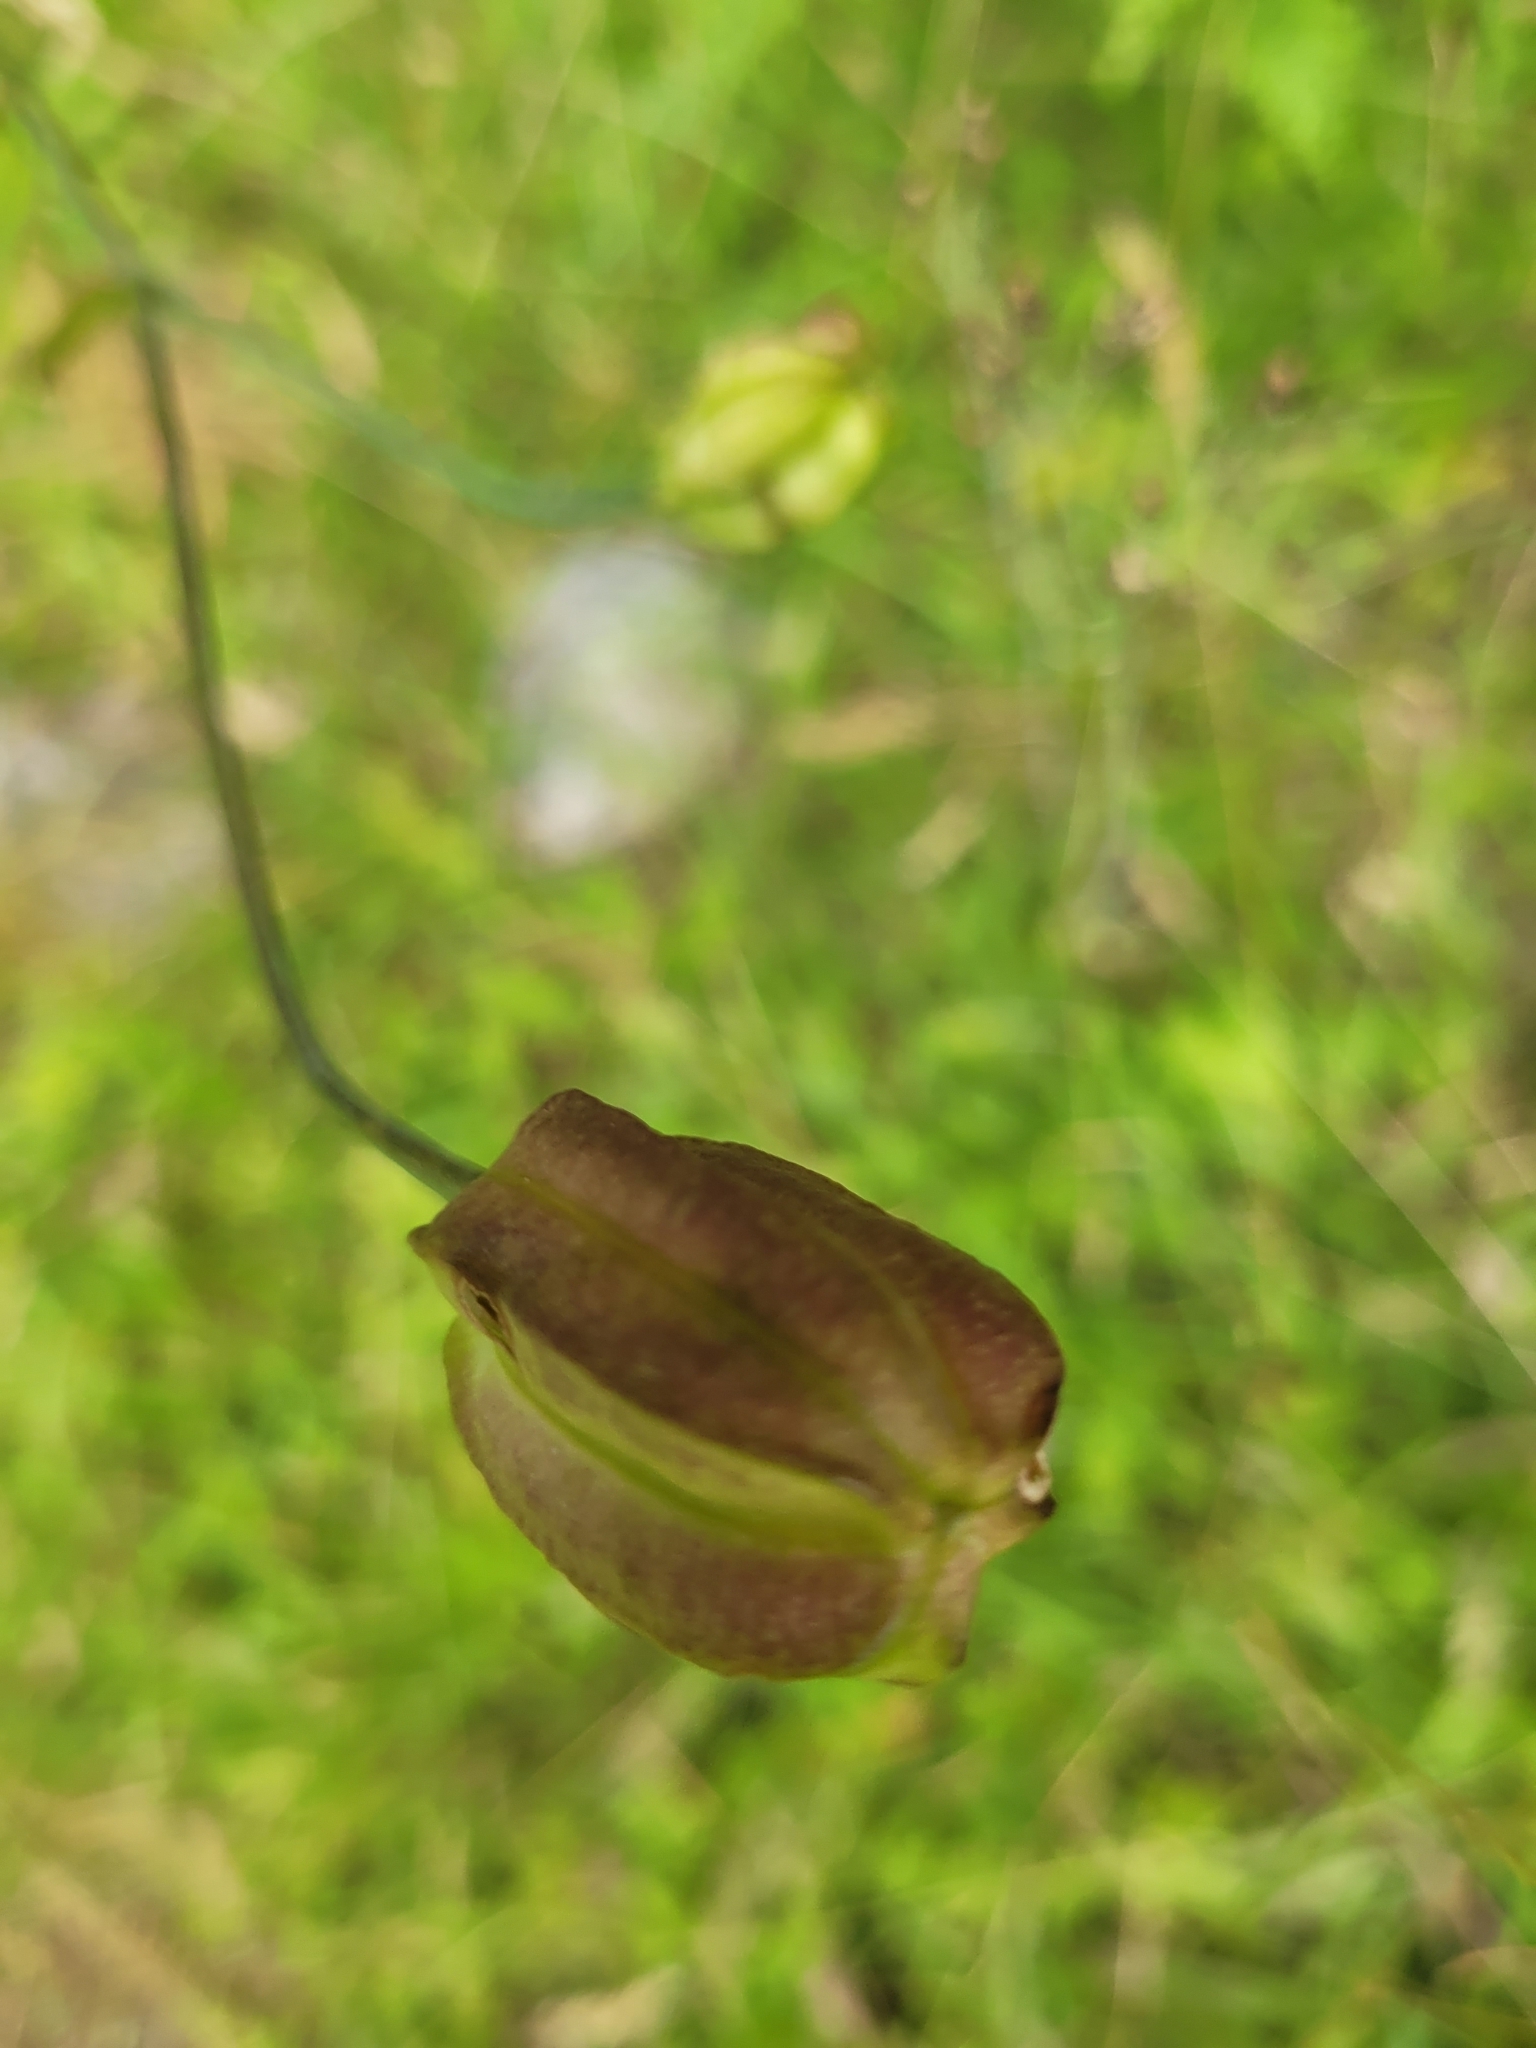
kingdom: Plantae
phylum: Tracheophyta
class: Liliopsida
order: Liliales
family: Liliaceae
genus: Lilium
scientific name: Lilium columbianum
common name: Columbia lily
